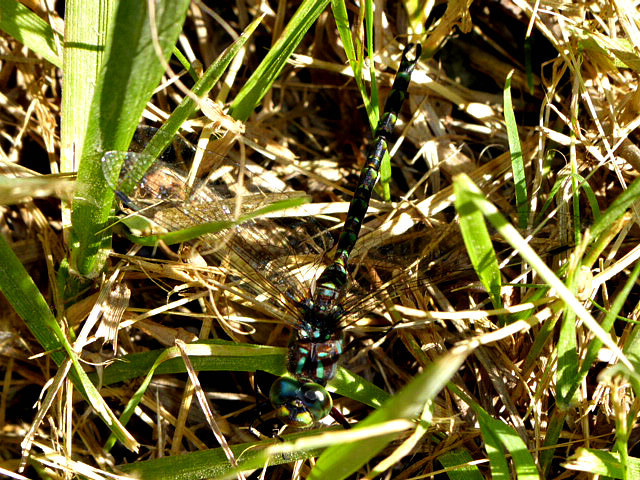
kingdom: Animalia
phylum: Arthropoda
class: Insecta
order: Odonata
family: Aeshnidae
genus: Gomphaeschna
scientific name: Gomphaeschna furcillata
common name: Harlequin darner
